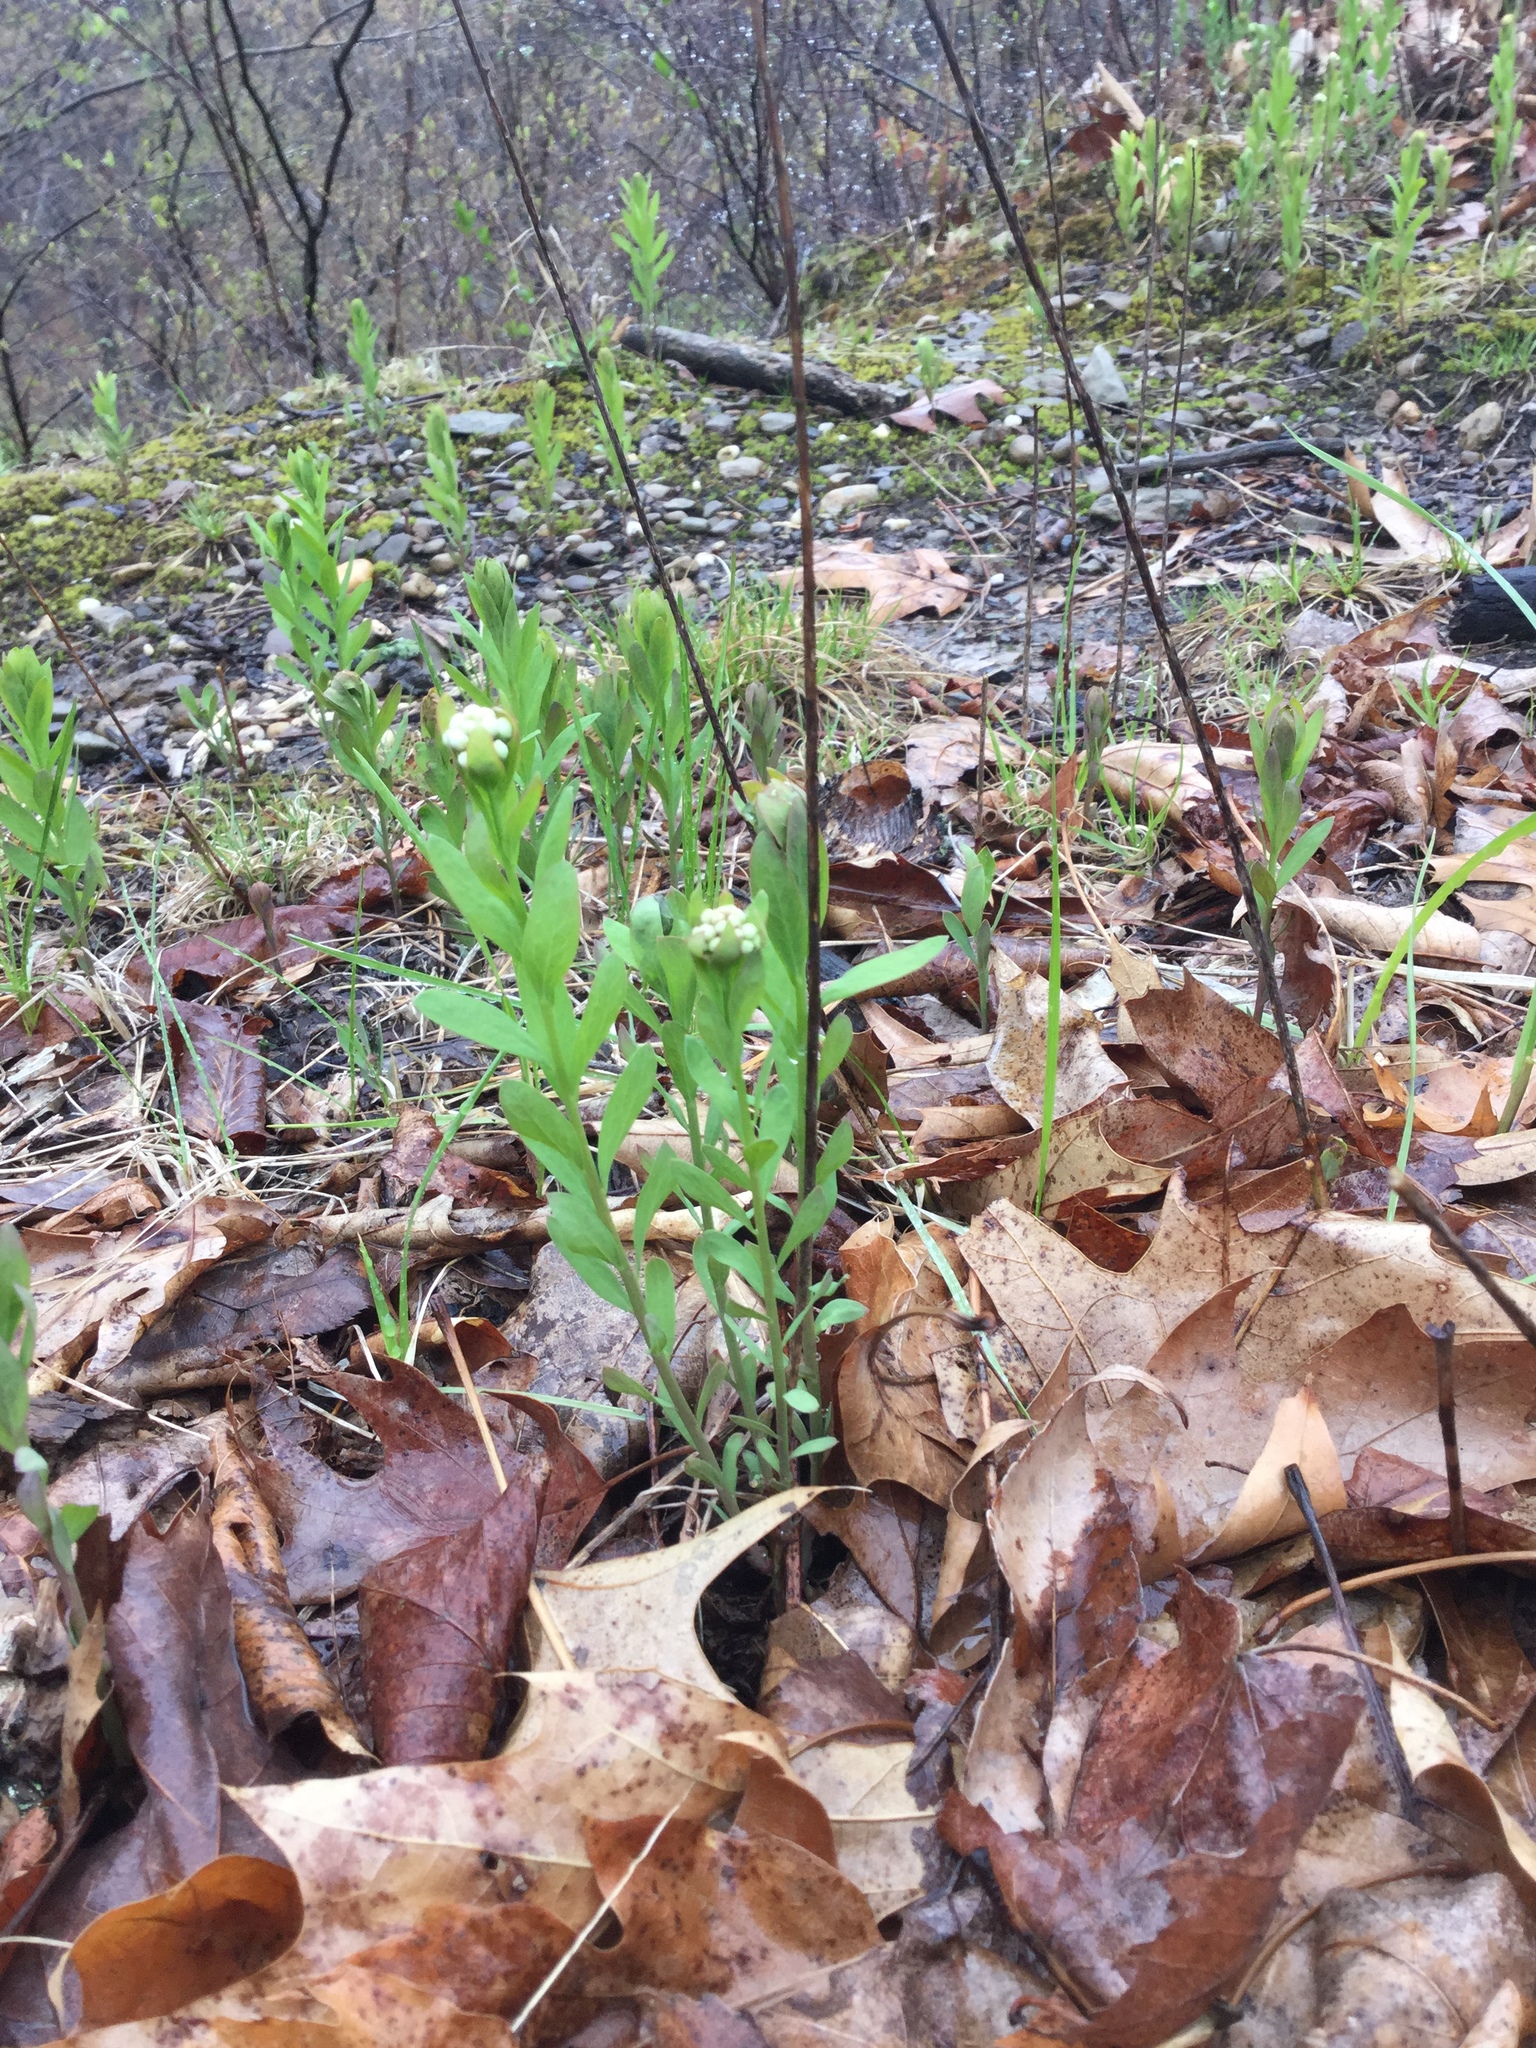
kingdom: Plantae
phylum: Tracheophyta
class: Magnoliopsida
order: Santalales
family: Comandraceae
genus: Comandra
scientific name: Comandra umbellata
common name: Bastard toadflax
